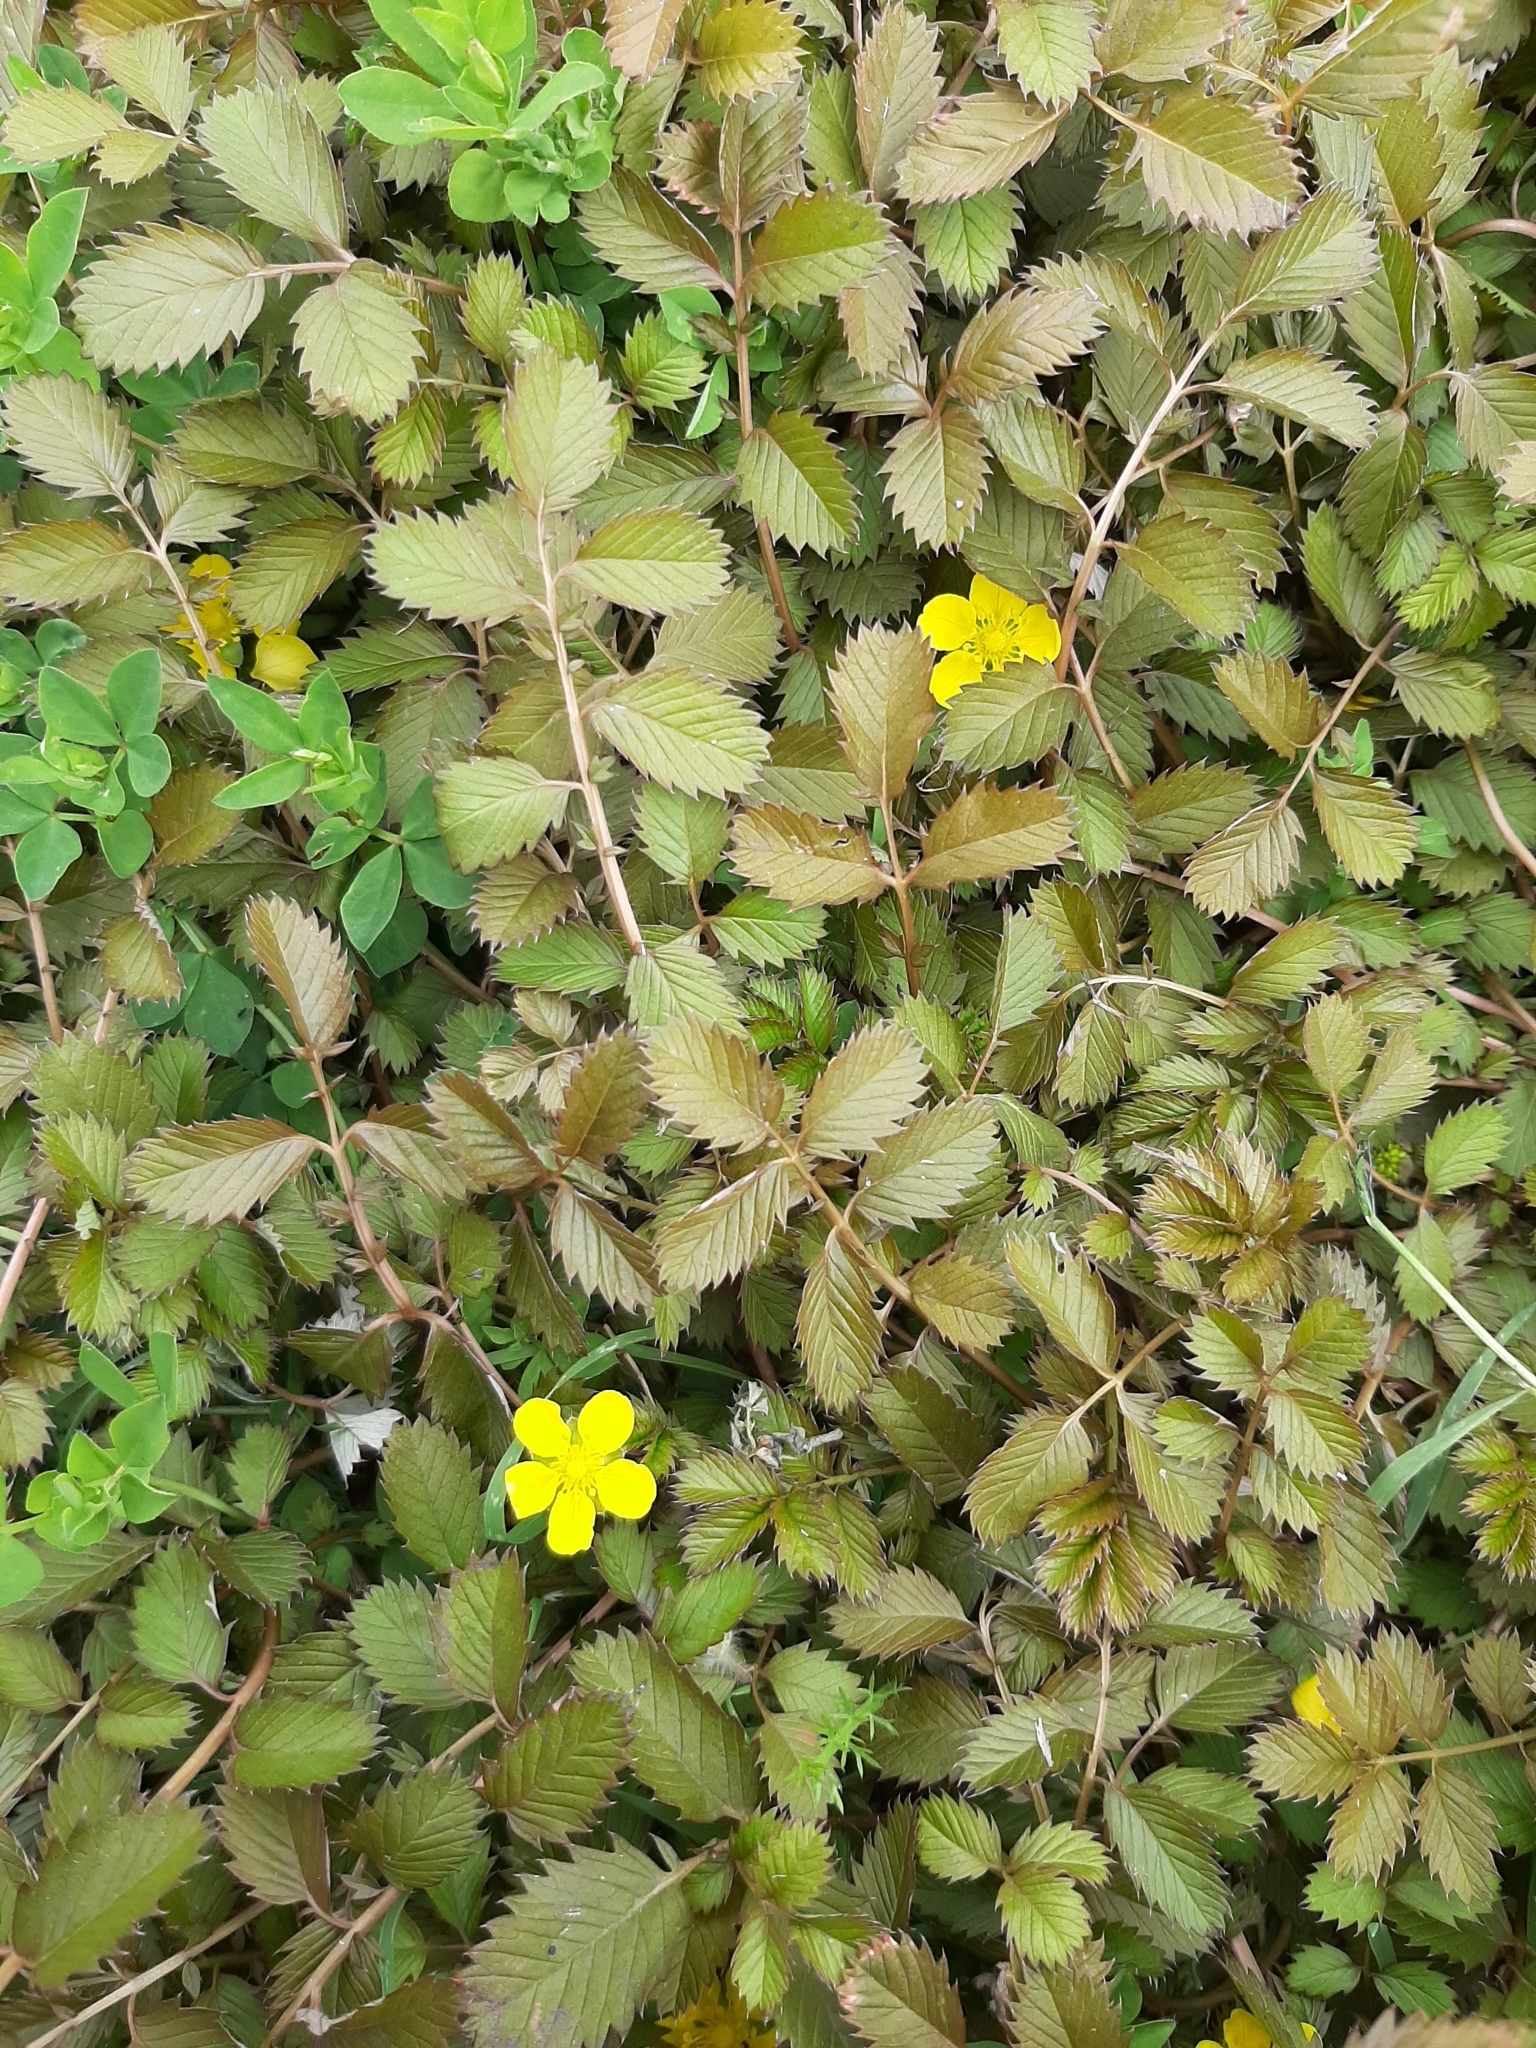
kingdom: Plantae
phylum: Tracheophyta
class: Magnoliopsida
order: Rosales
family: Rosaceae
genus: Argentina
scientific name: Argentina anserinoides
